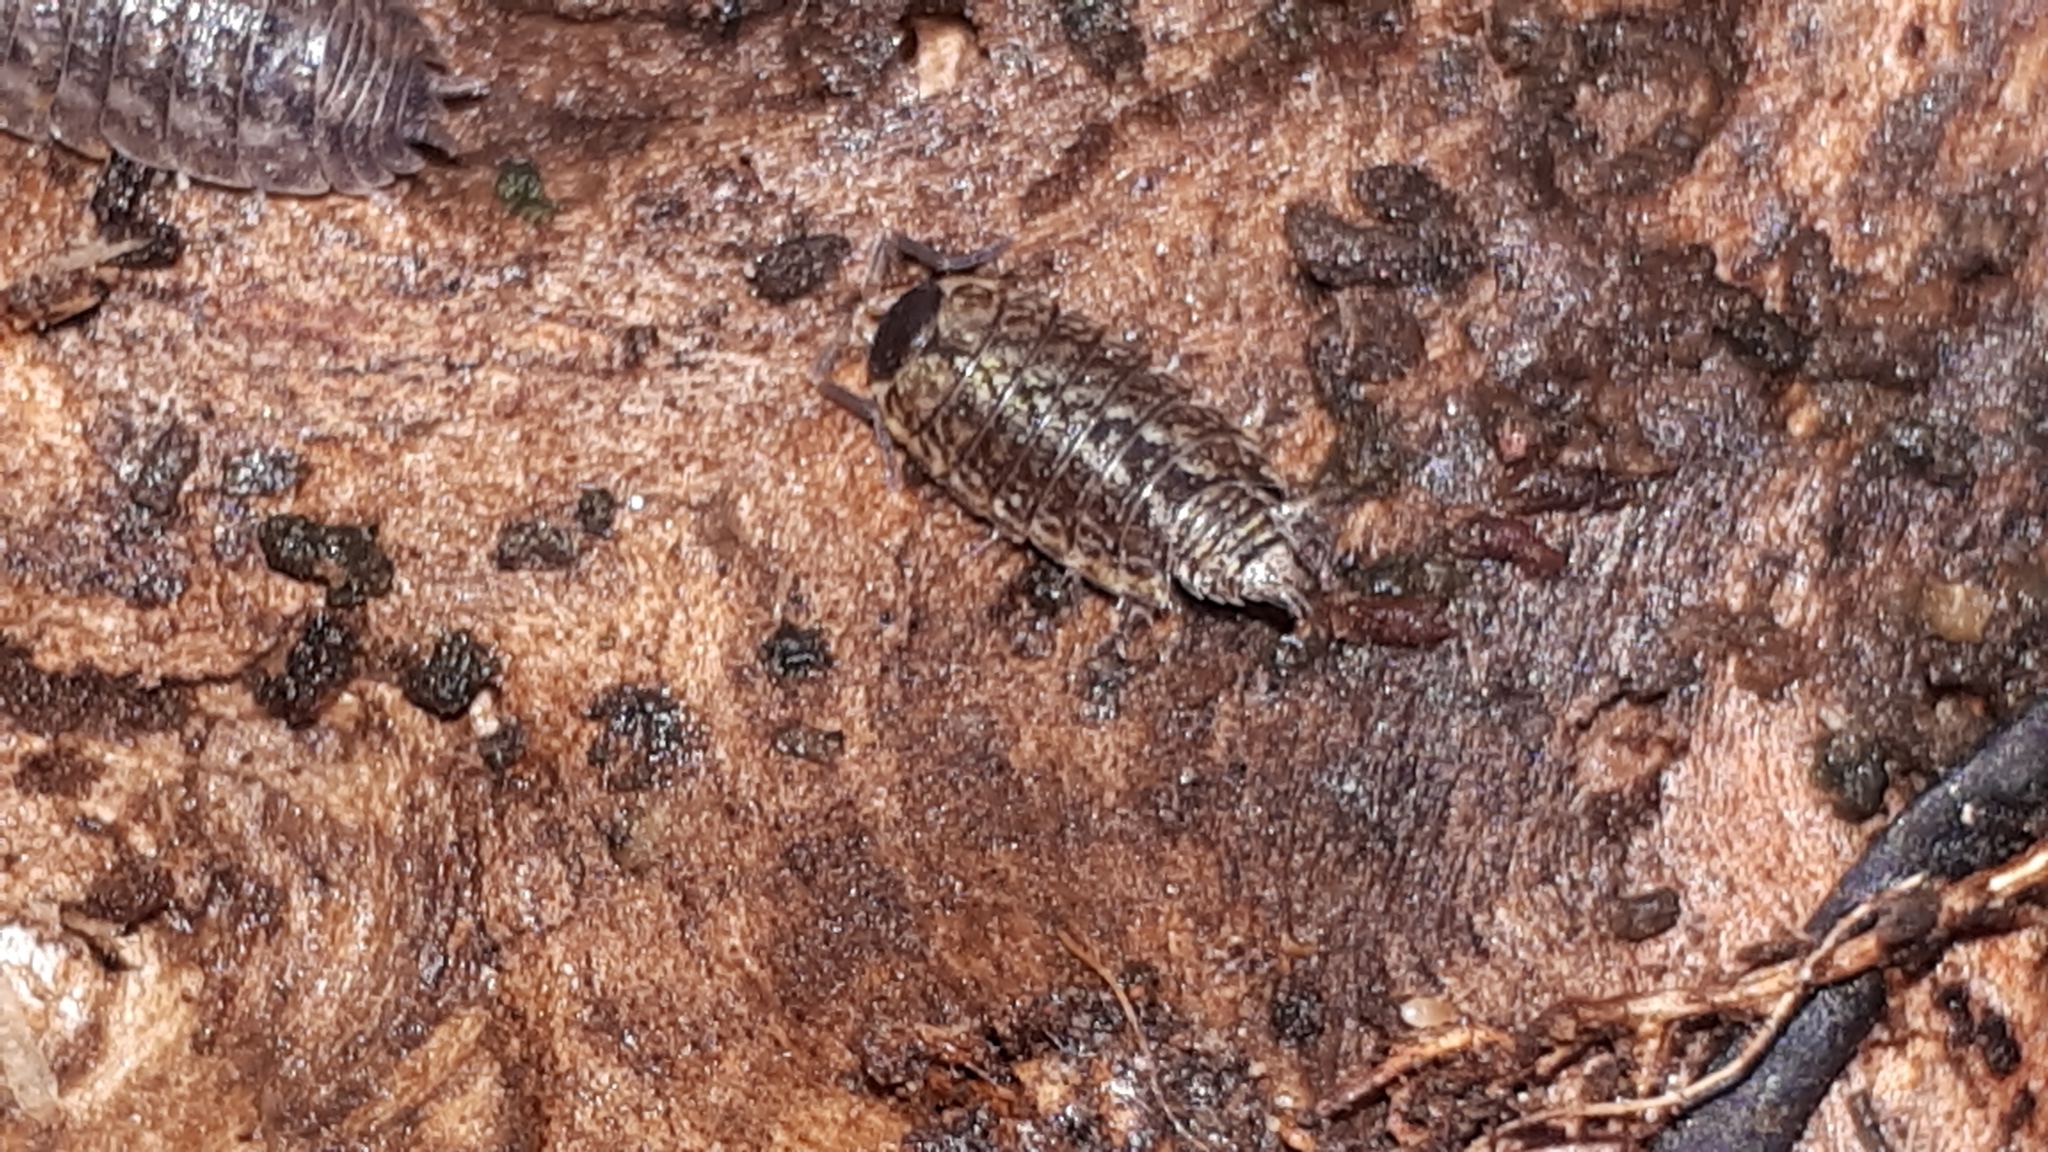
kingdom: Animalia
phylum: Arthropoda
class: Malacostraca
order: Isopoda
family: Philosciidae
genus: Philoscia
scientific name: Philoscia muscorum
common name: Common striped woodlouse
